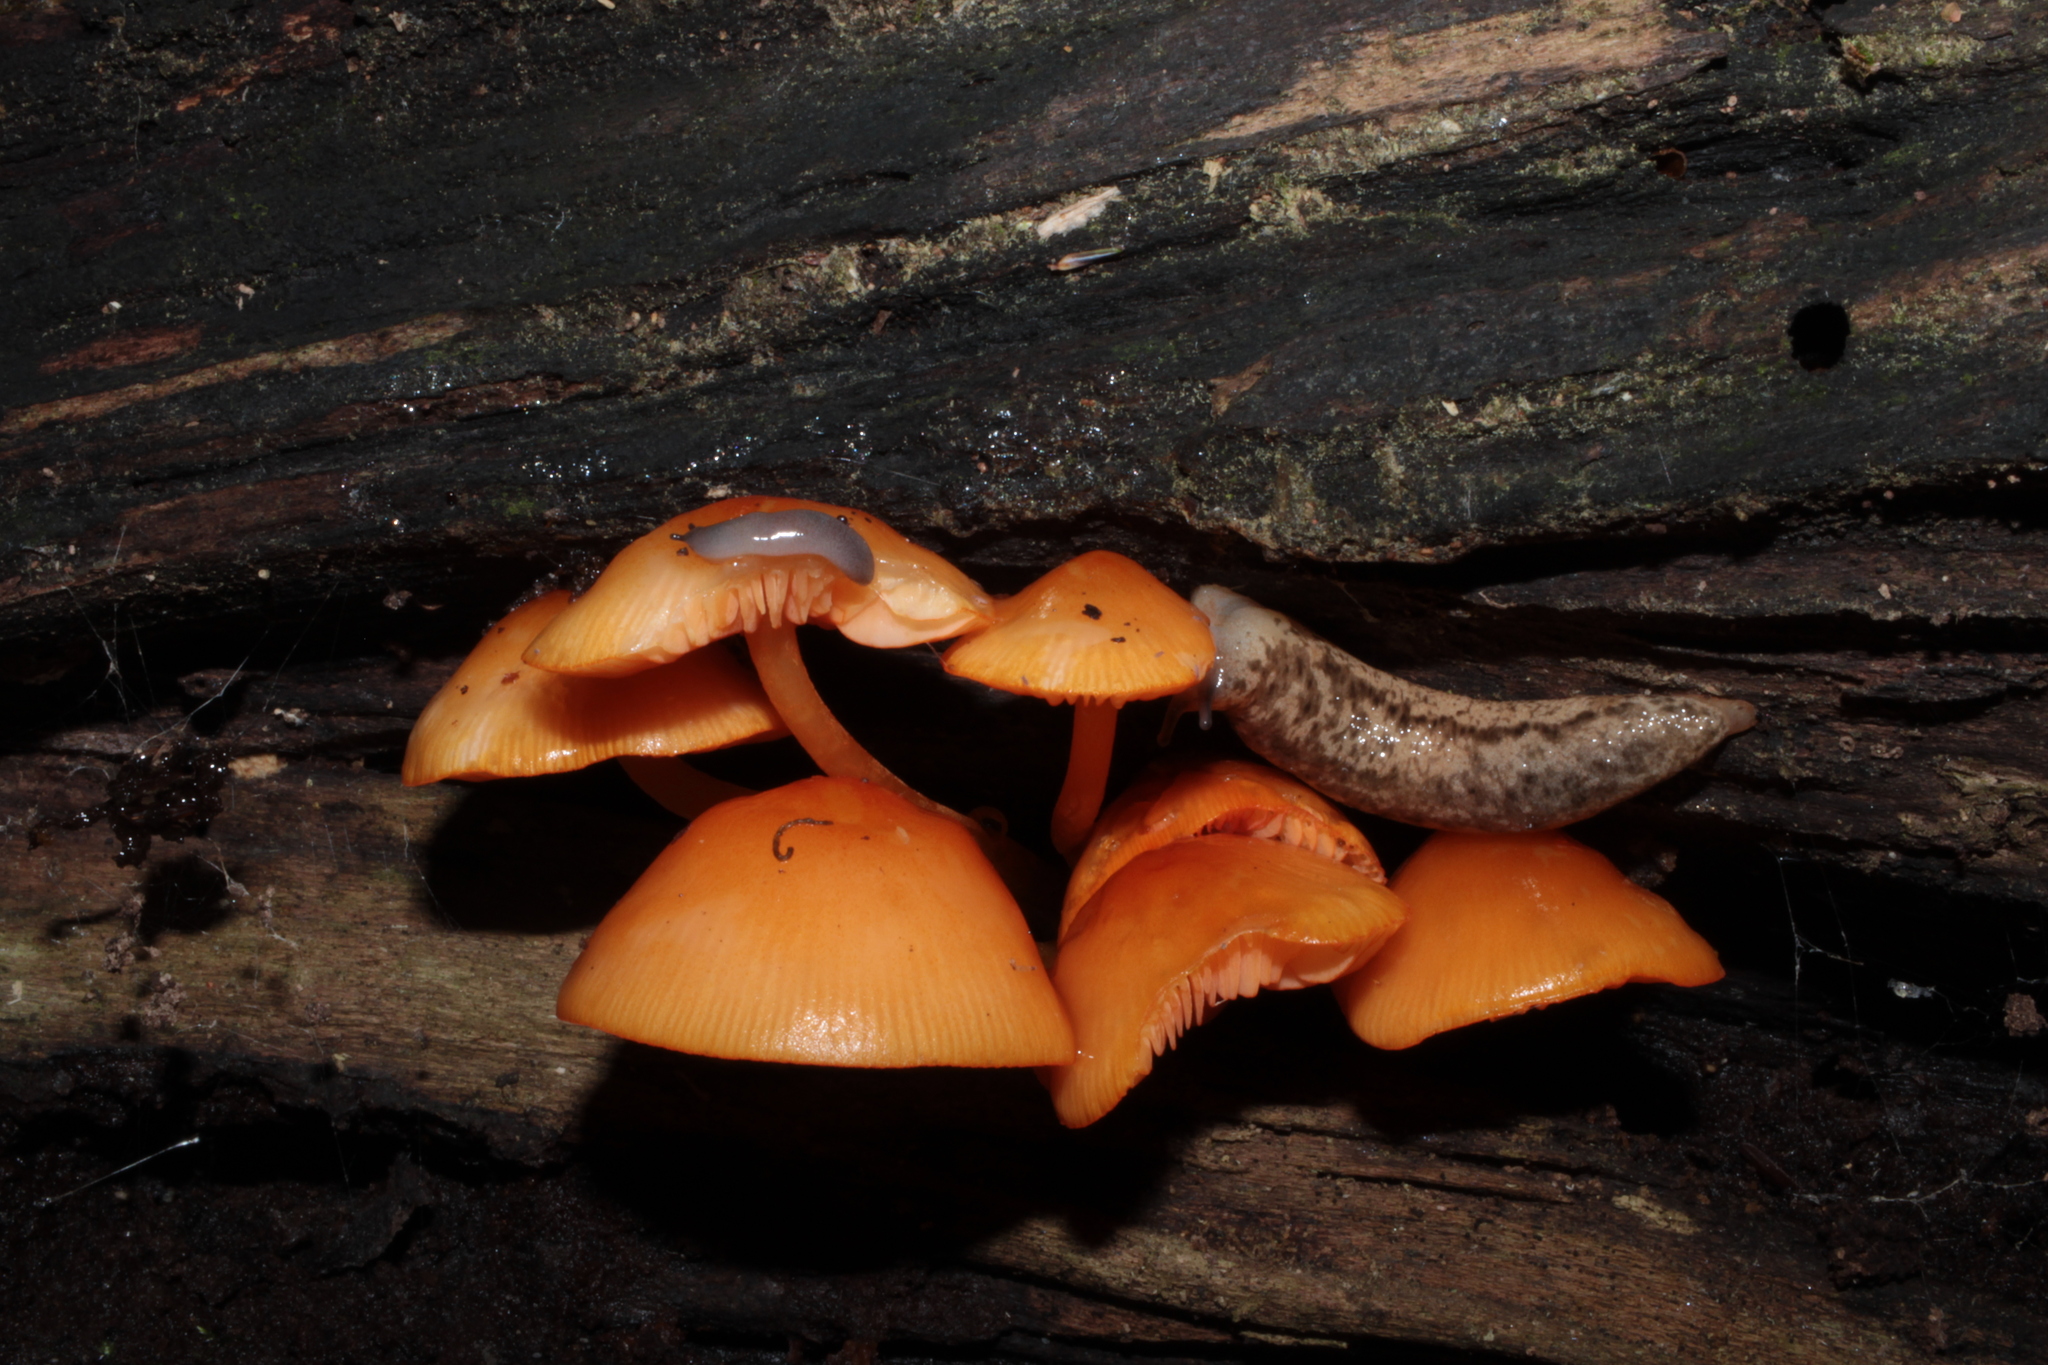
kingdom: Fungi
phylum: Basidiomycota
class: Agaricomycetes
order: Agaricales
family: Mycenaceae
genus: Mycena
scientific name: Mycena leaiana
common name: Orange mycena
